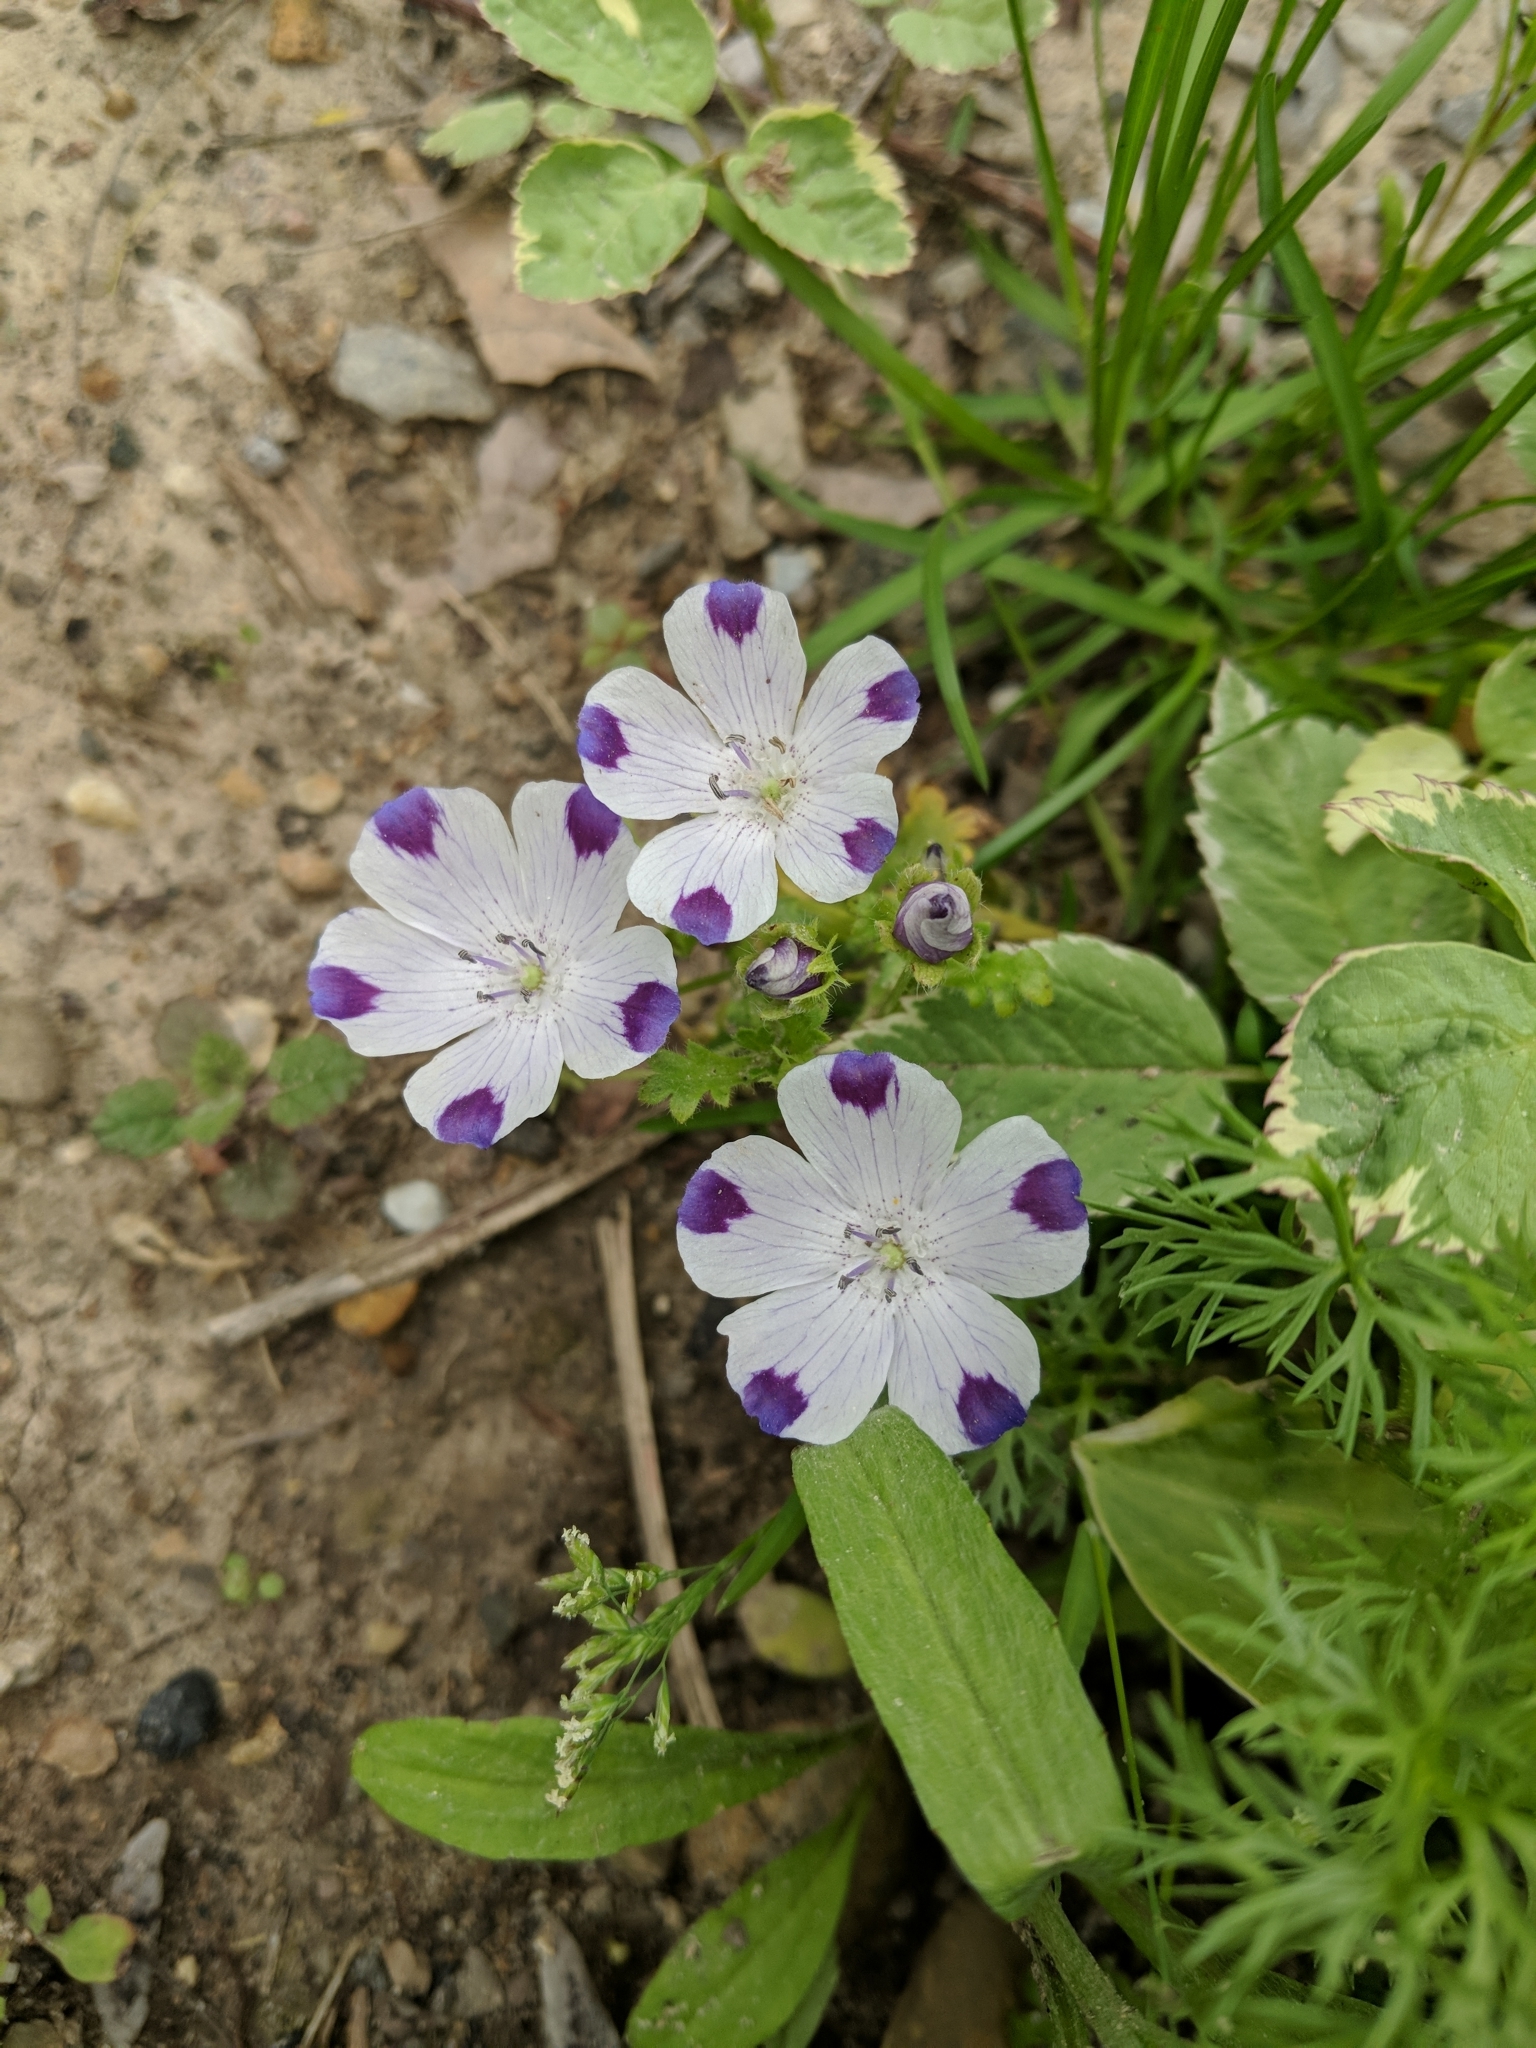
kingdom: Plantae
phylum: Tracheophyta
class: Magnoliopsida
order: Boraginales
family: Hydrophyllaceae
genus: Nemophila
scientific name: Nemophila maculata
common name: Fivespot
